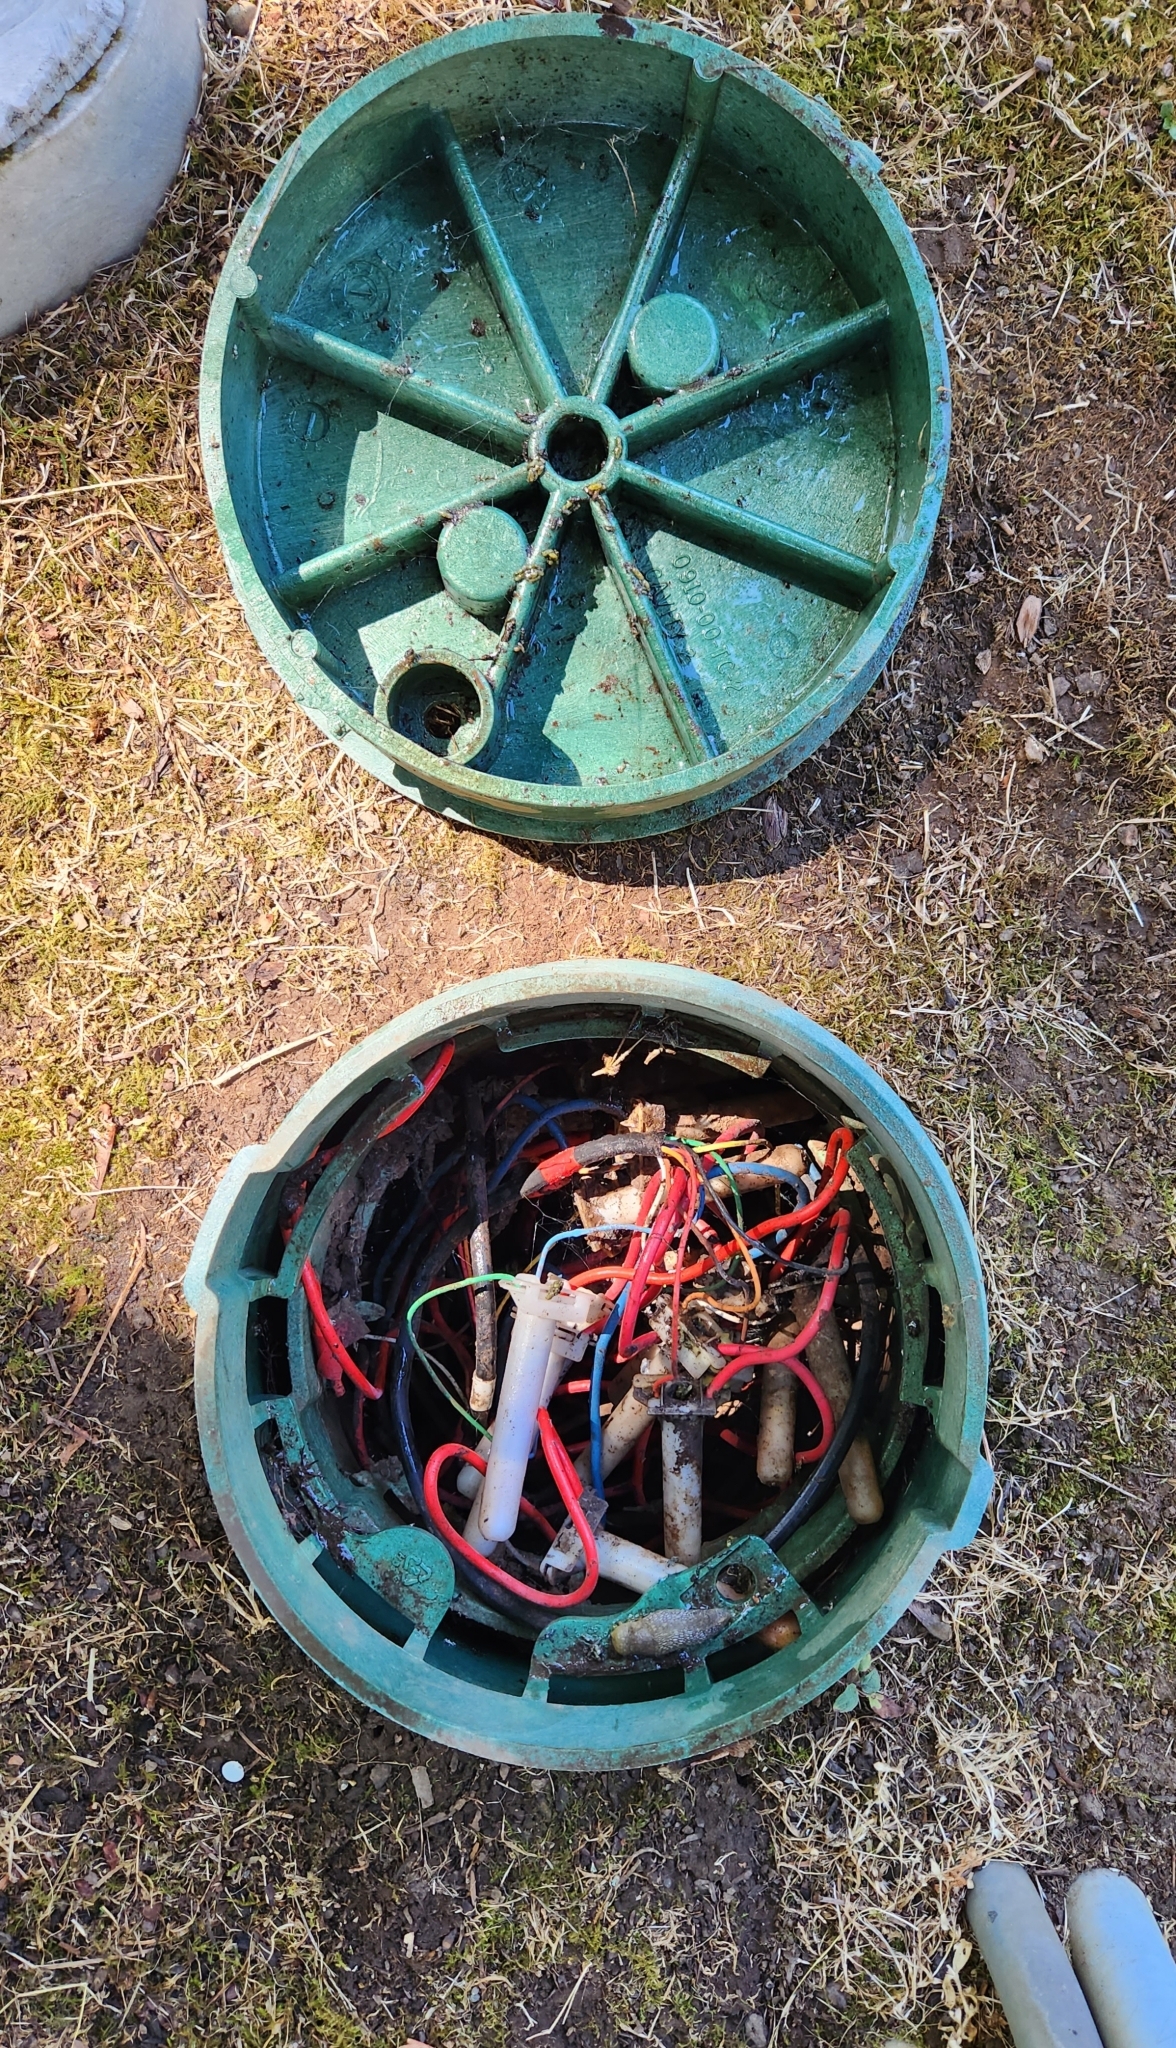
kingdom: Animalia
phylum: Mollusca
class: Gastropoda
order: Stylommatophora
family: Limacidae
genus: Limacus
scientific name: Limacus flavus
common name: Yellow gardenslug
